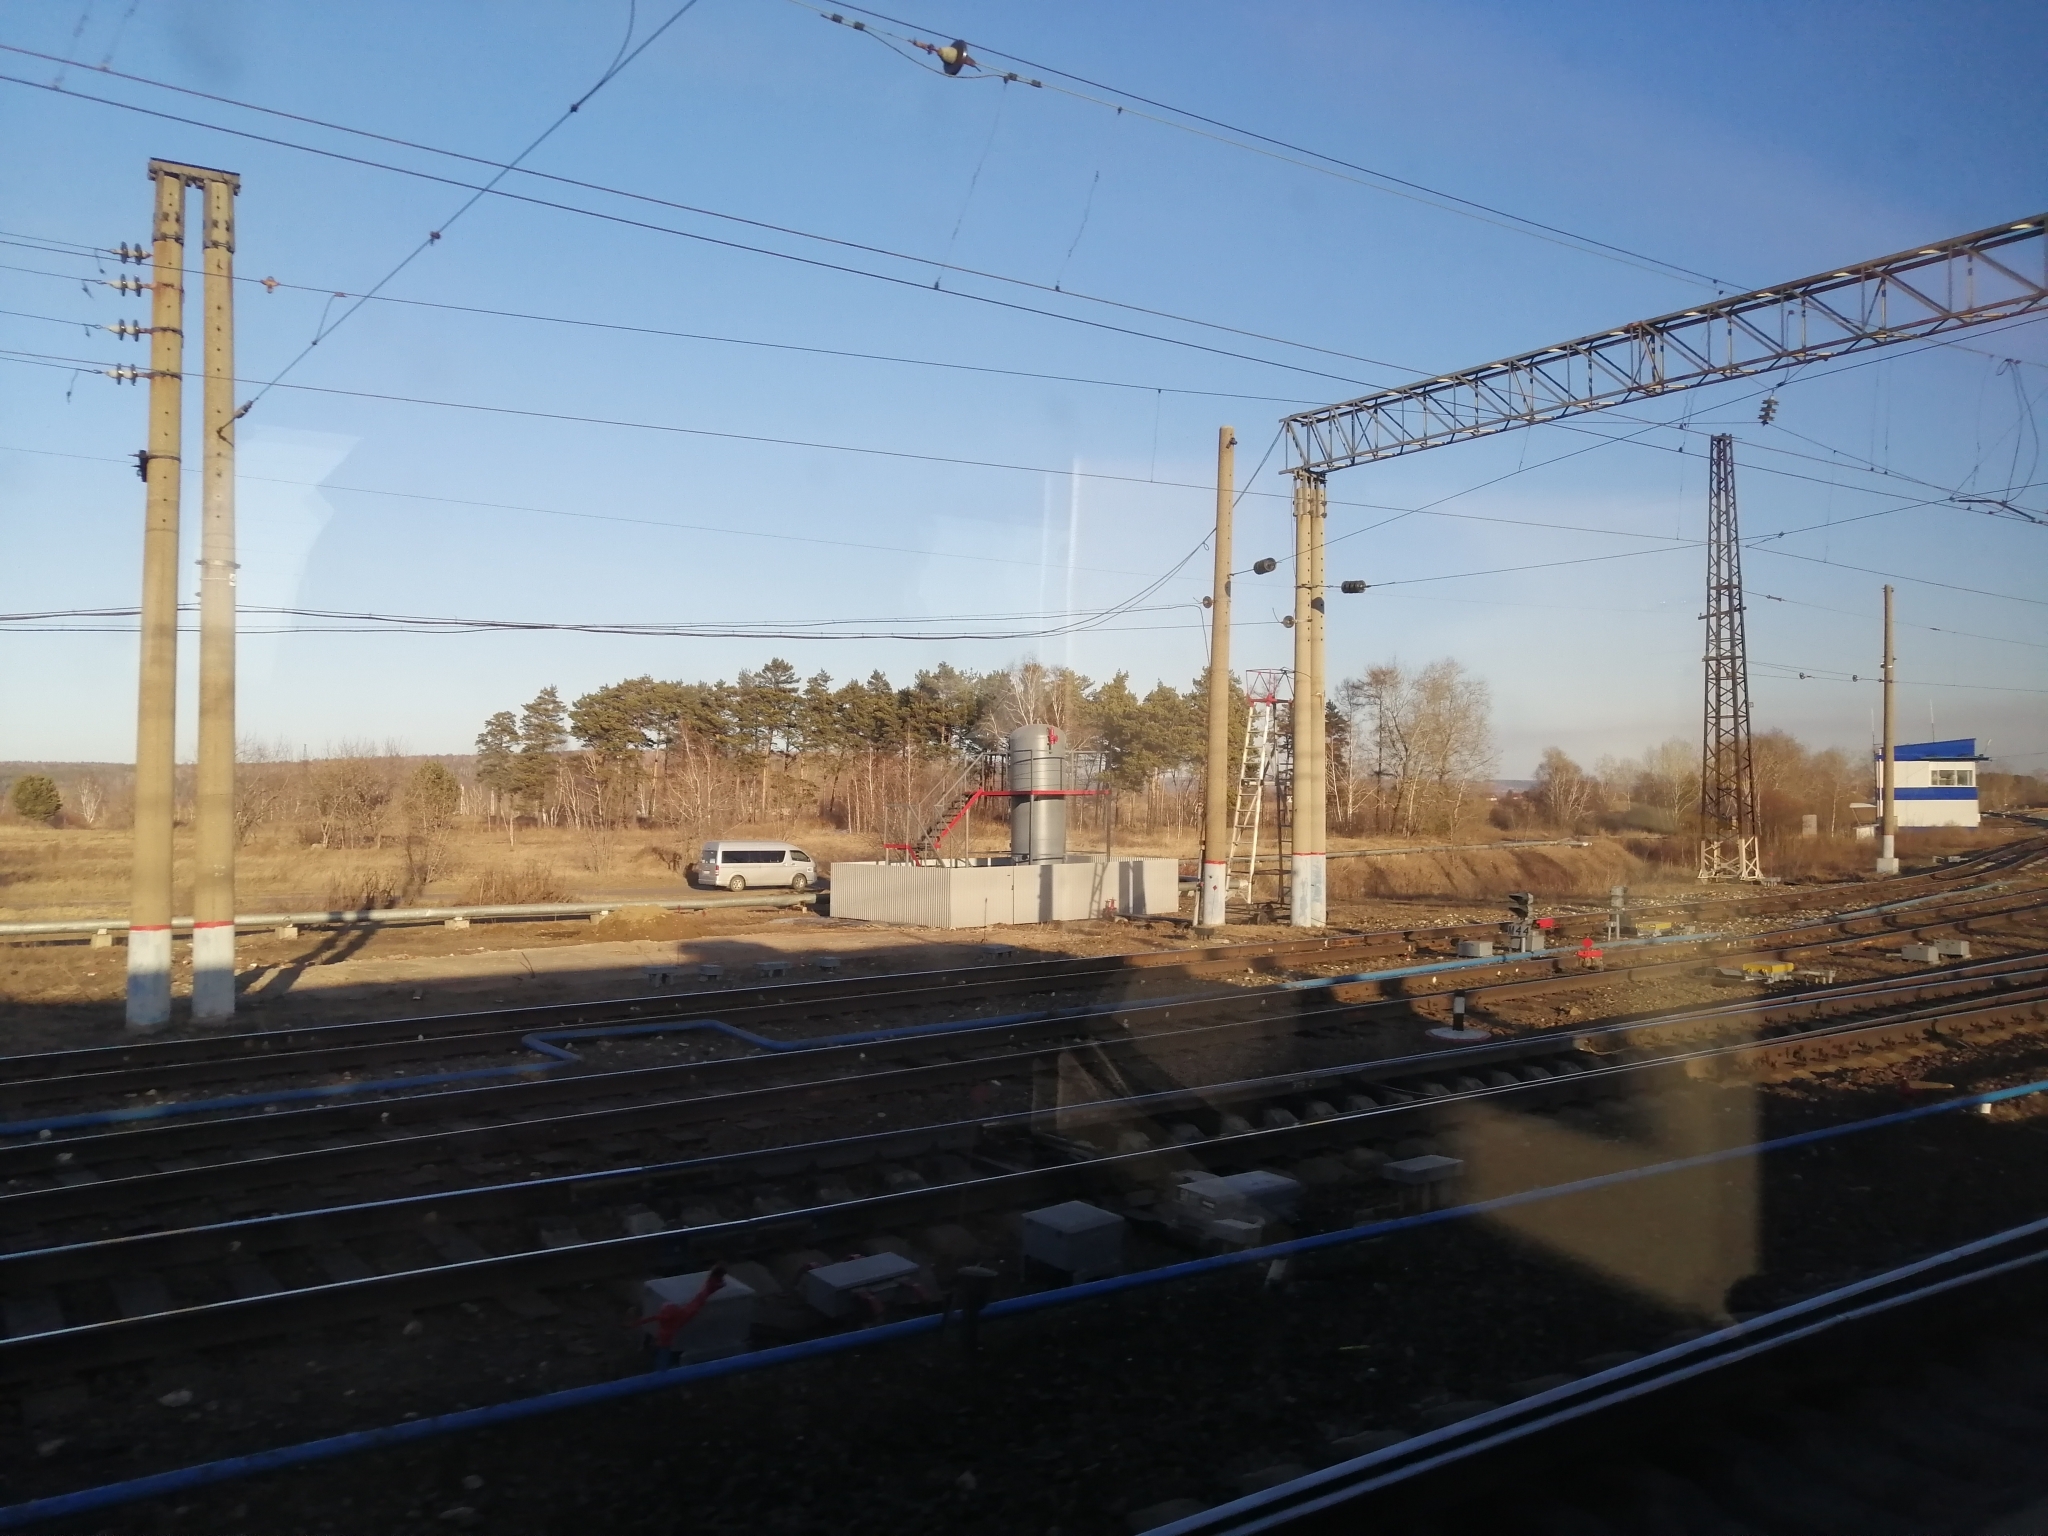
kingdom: Plantae
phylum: Tracheophyta
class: Pinopsida
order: Pinales
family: Pinaceae
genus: Pinus
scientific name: Pinus sylvestris
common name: Scots pine
